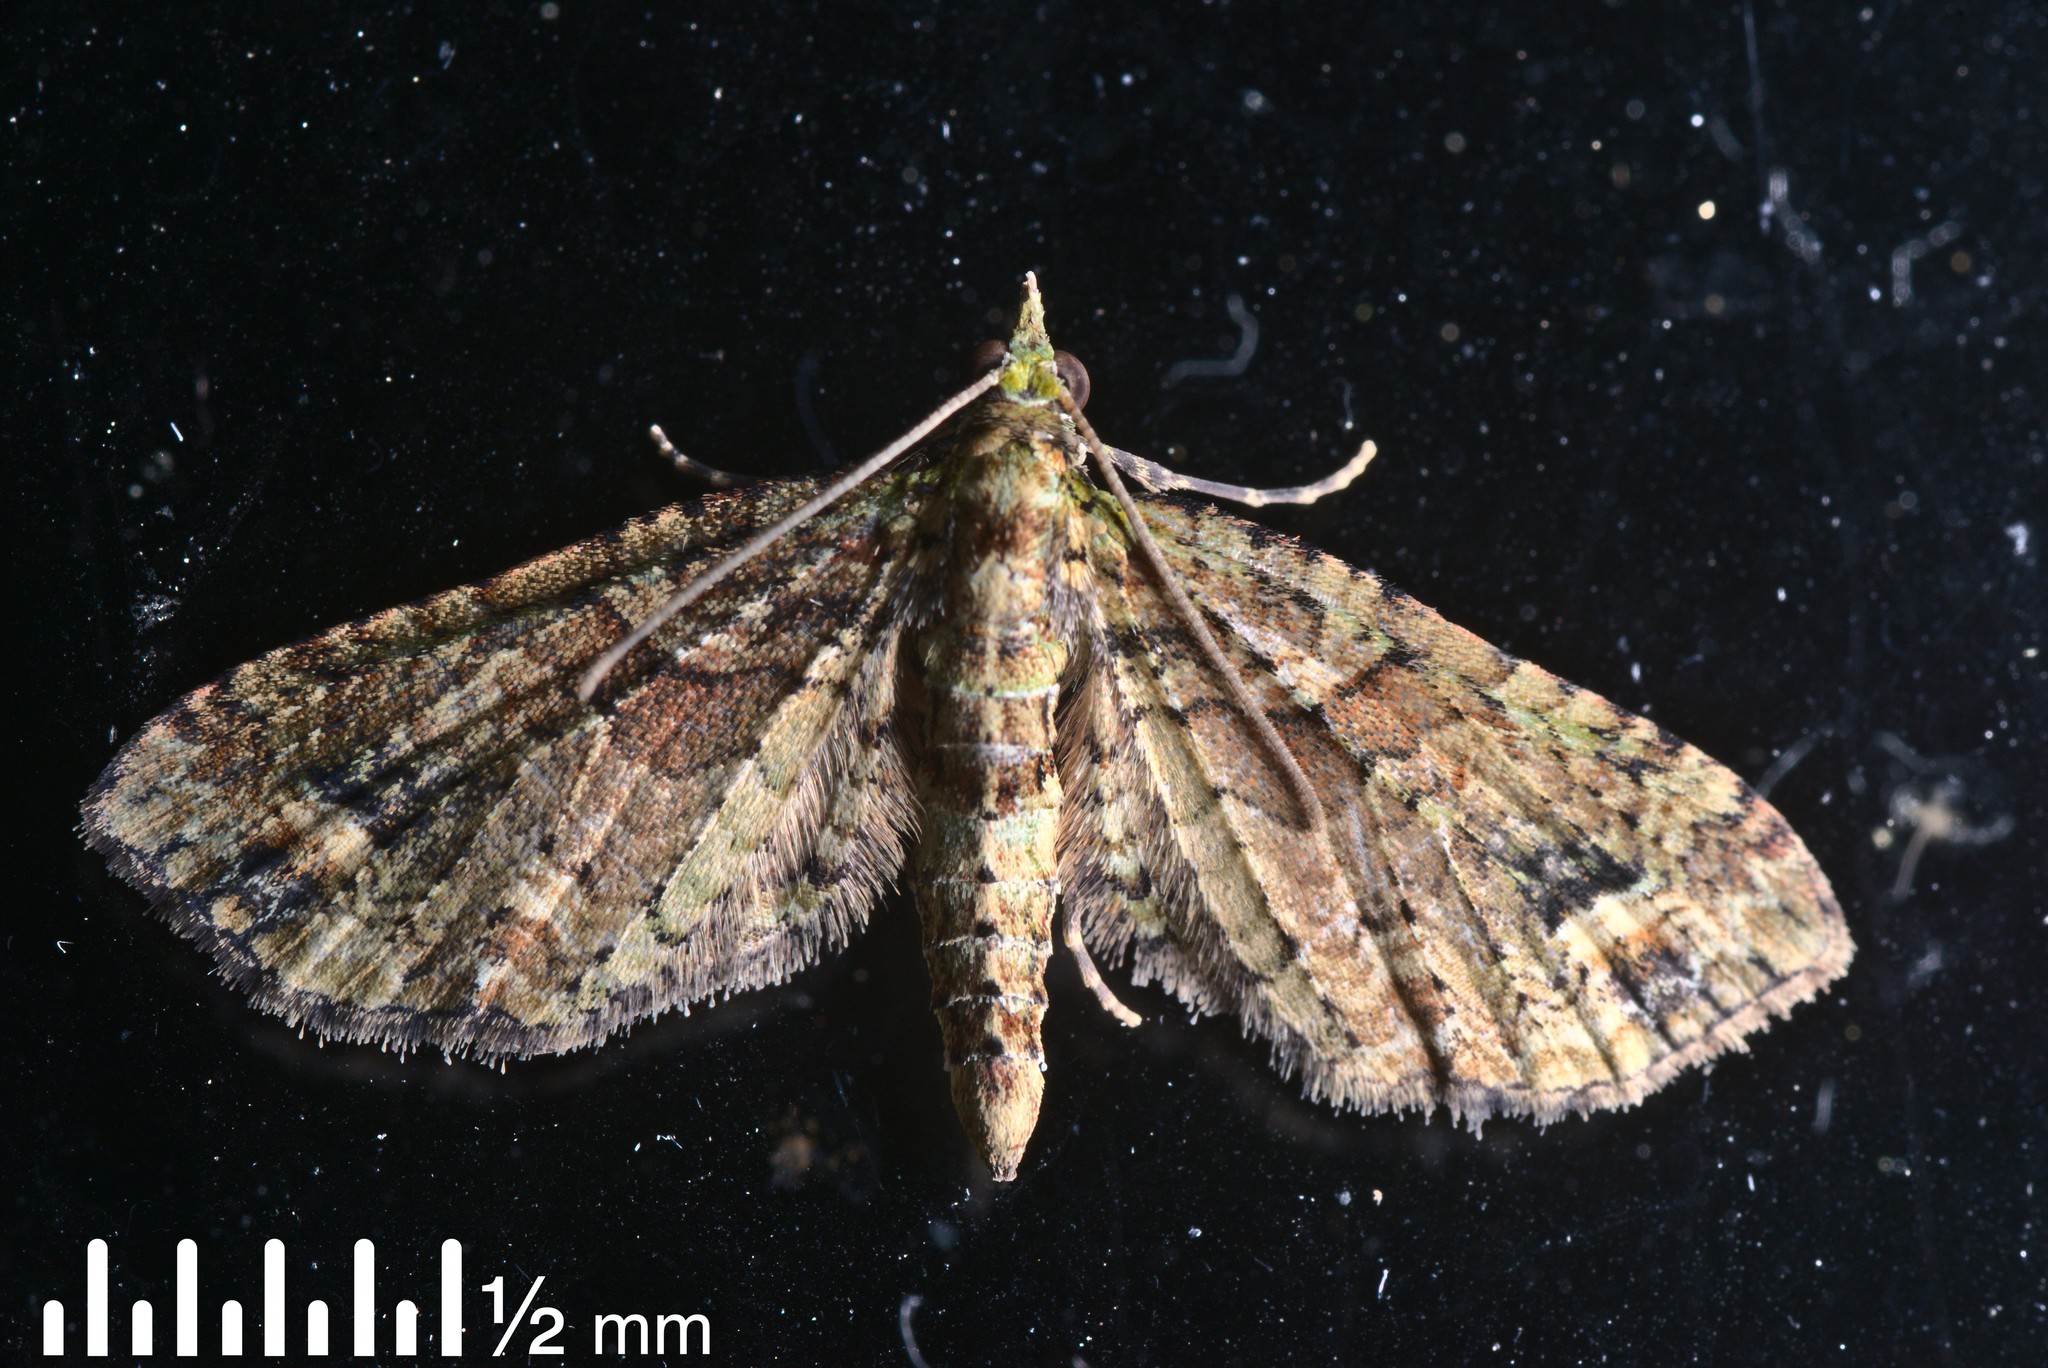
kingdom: Animalia
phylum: Arthropoda
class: Insecta
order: Lepidoptera
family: Geometridae
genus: Idaea
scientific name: Idaea mutanda
